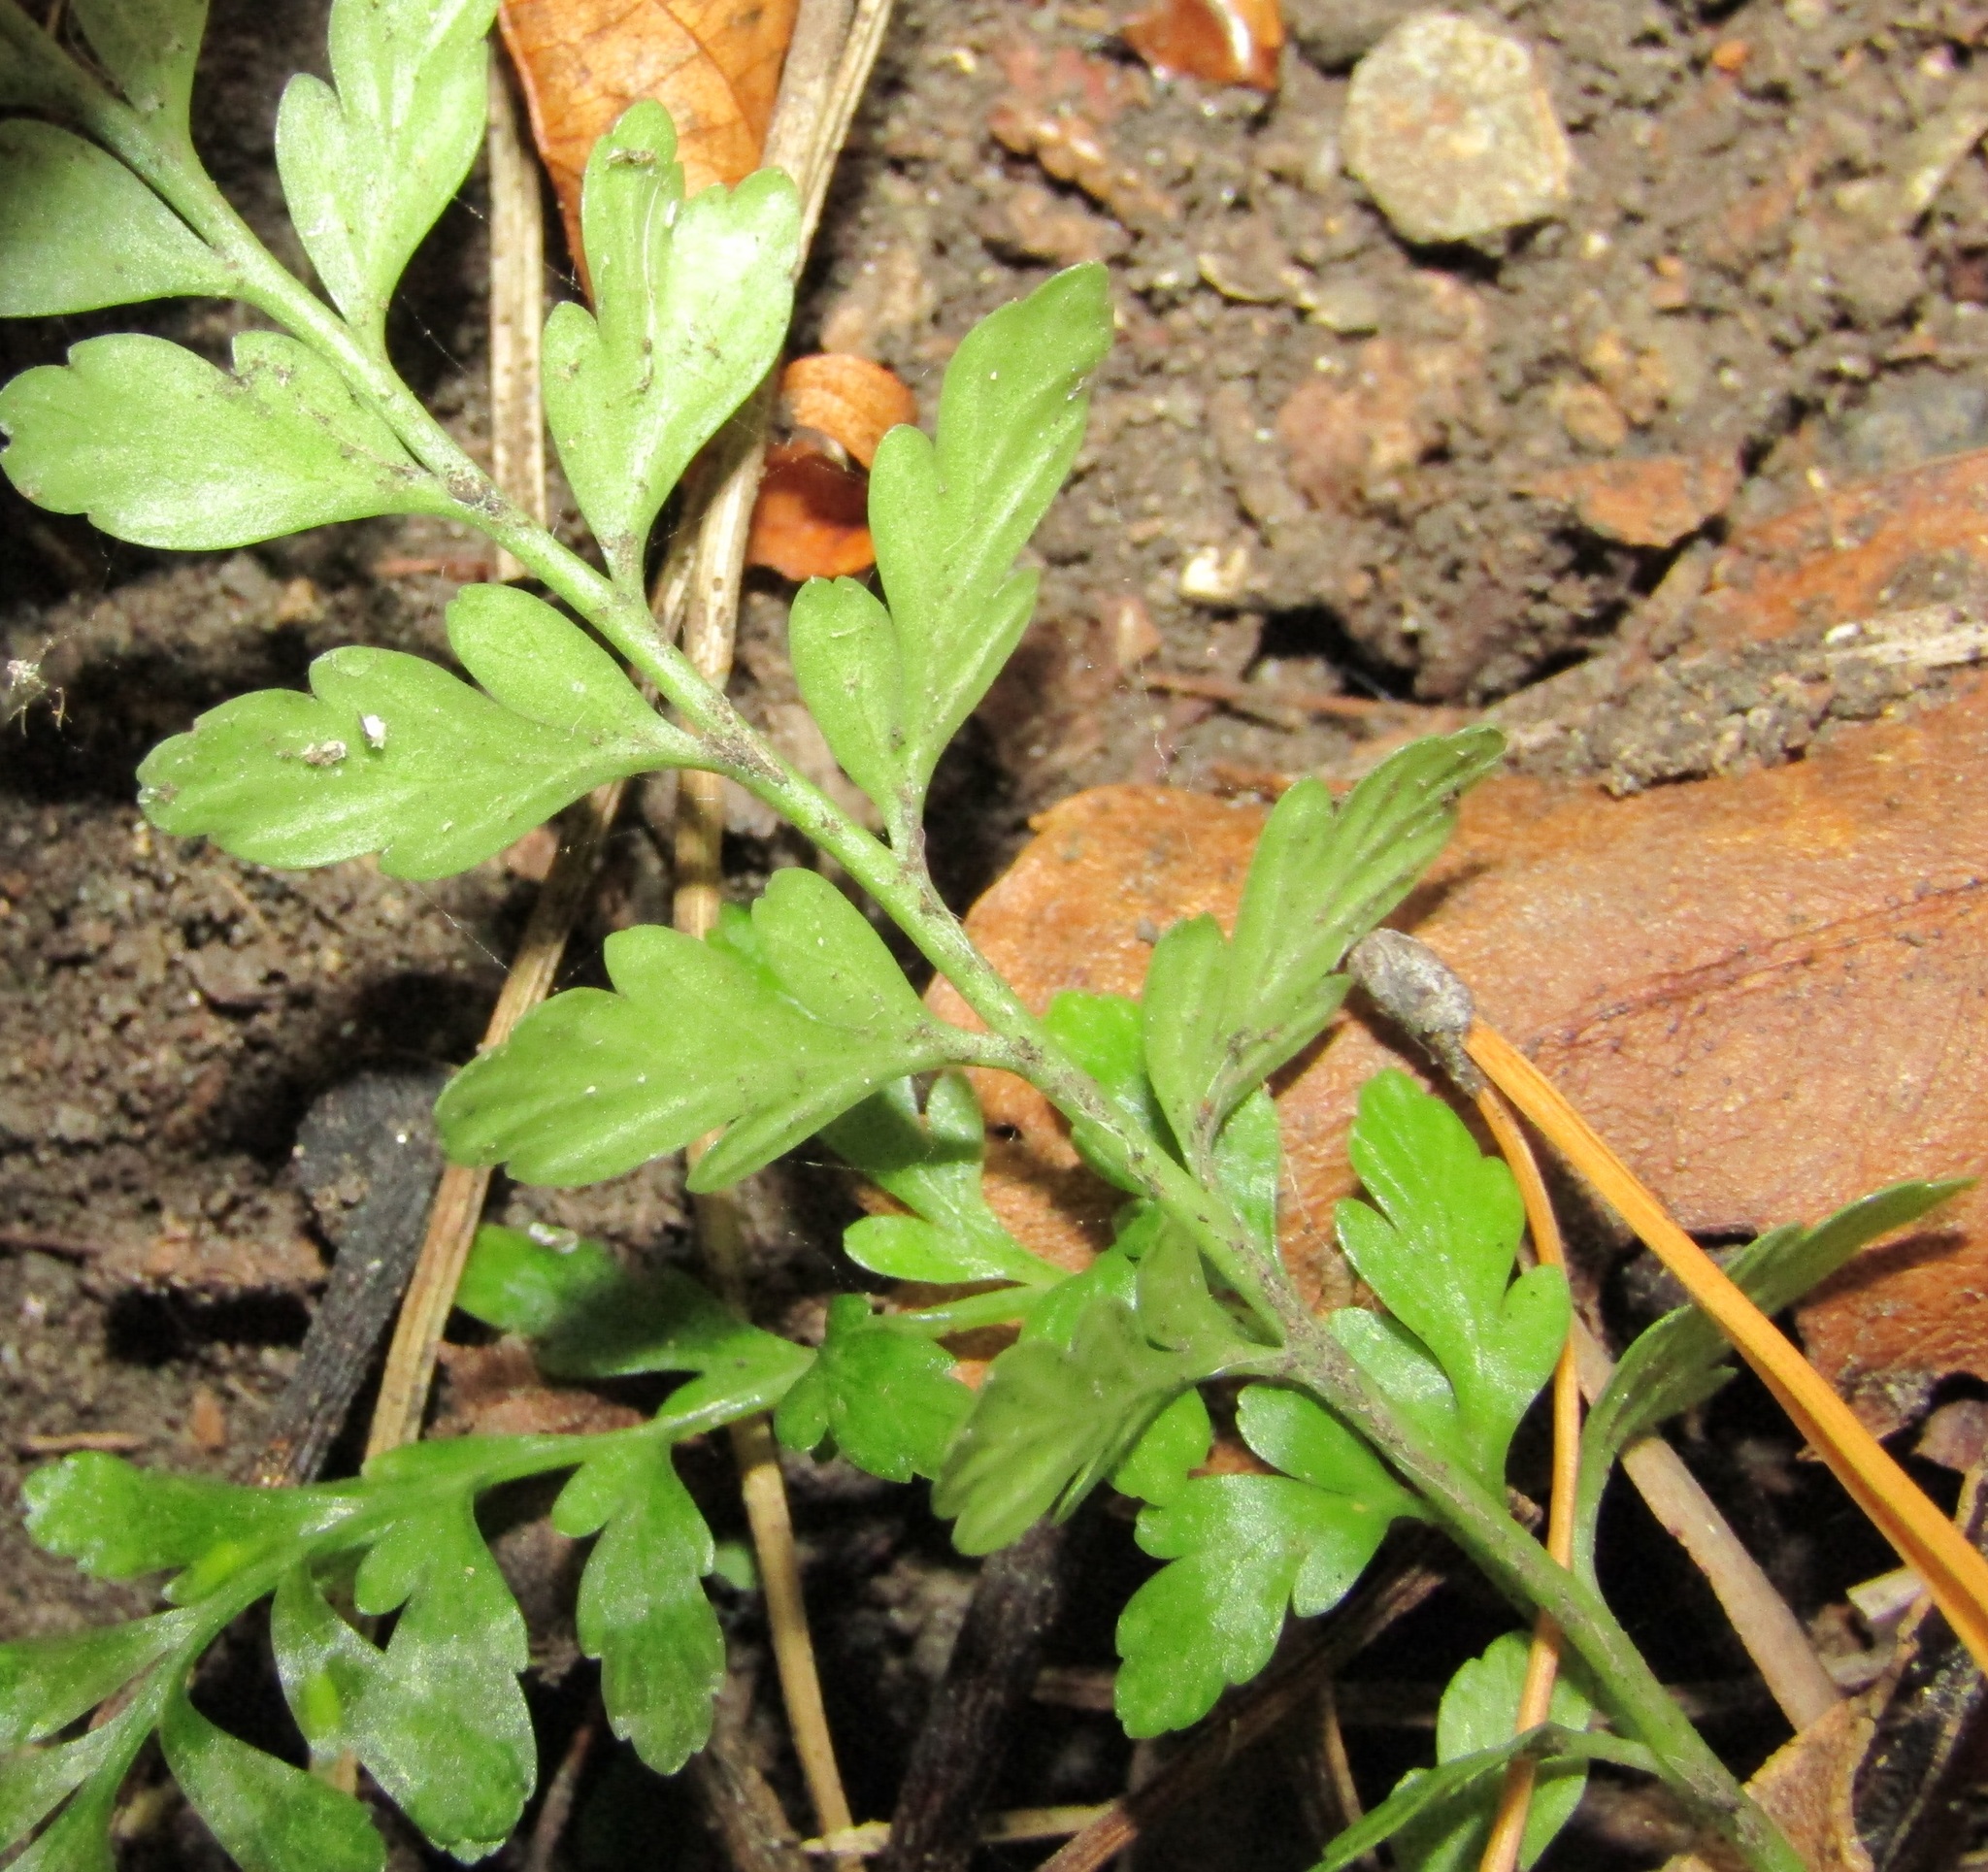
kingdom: Plantae
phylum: Tracheophyta
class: Polypodiopsida
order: Polypodiales
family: Aspleniaceae
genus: Asplenium
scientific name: Asplenium
